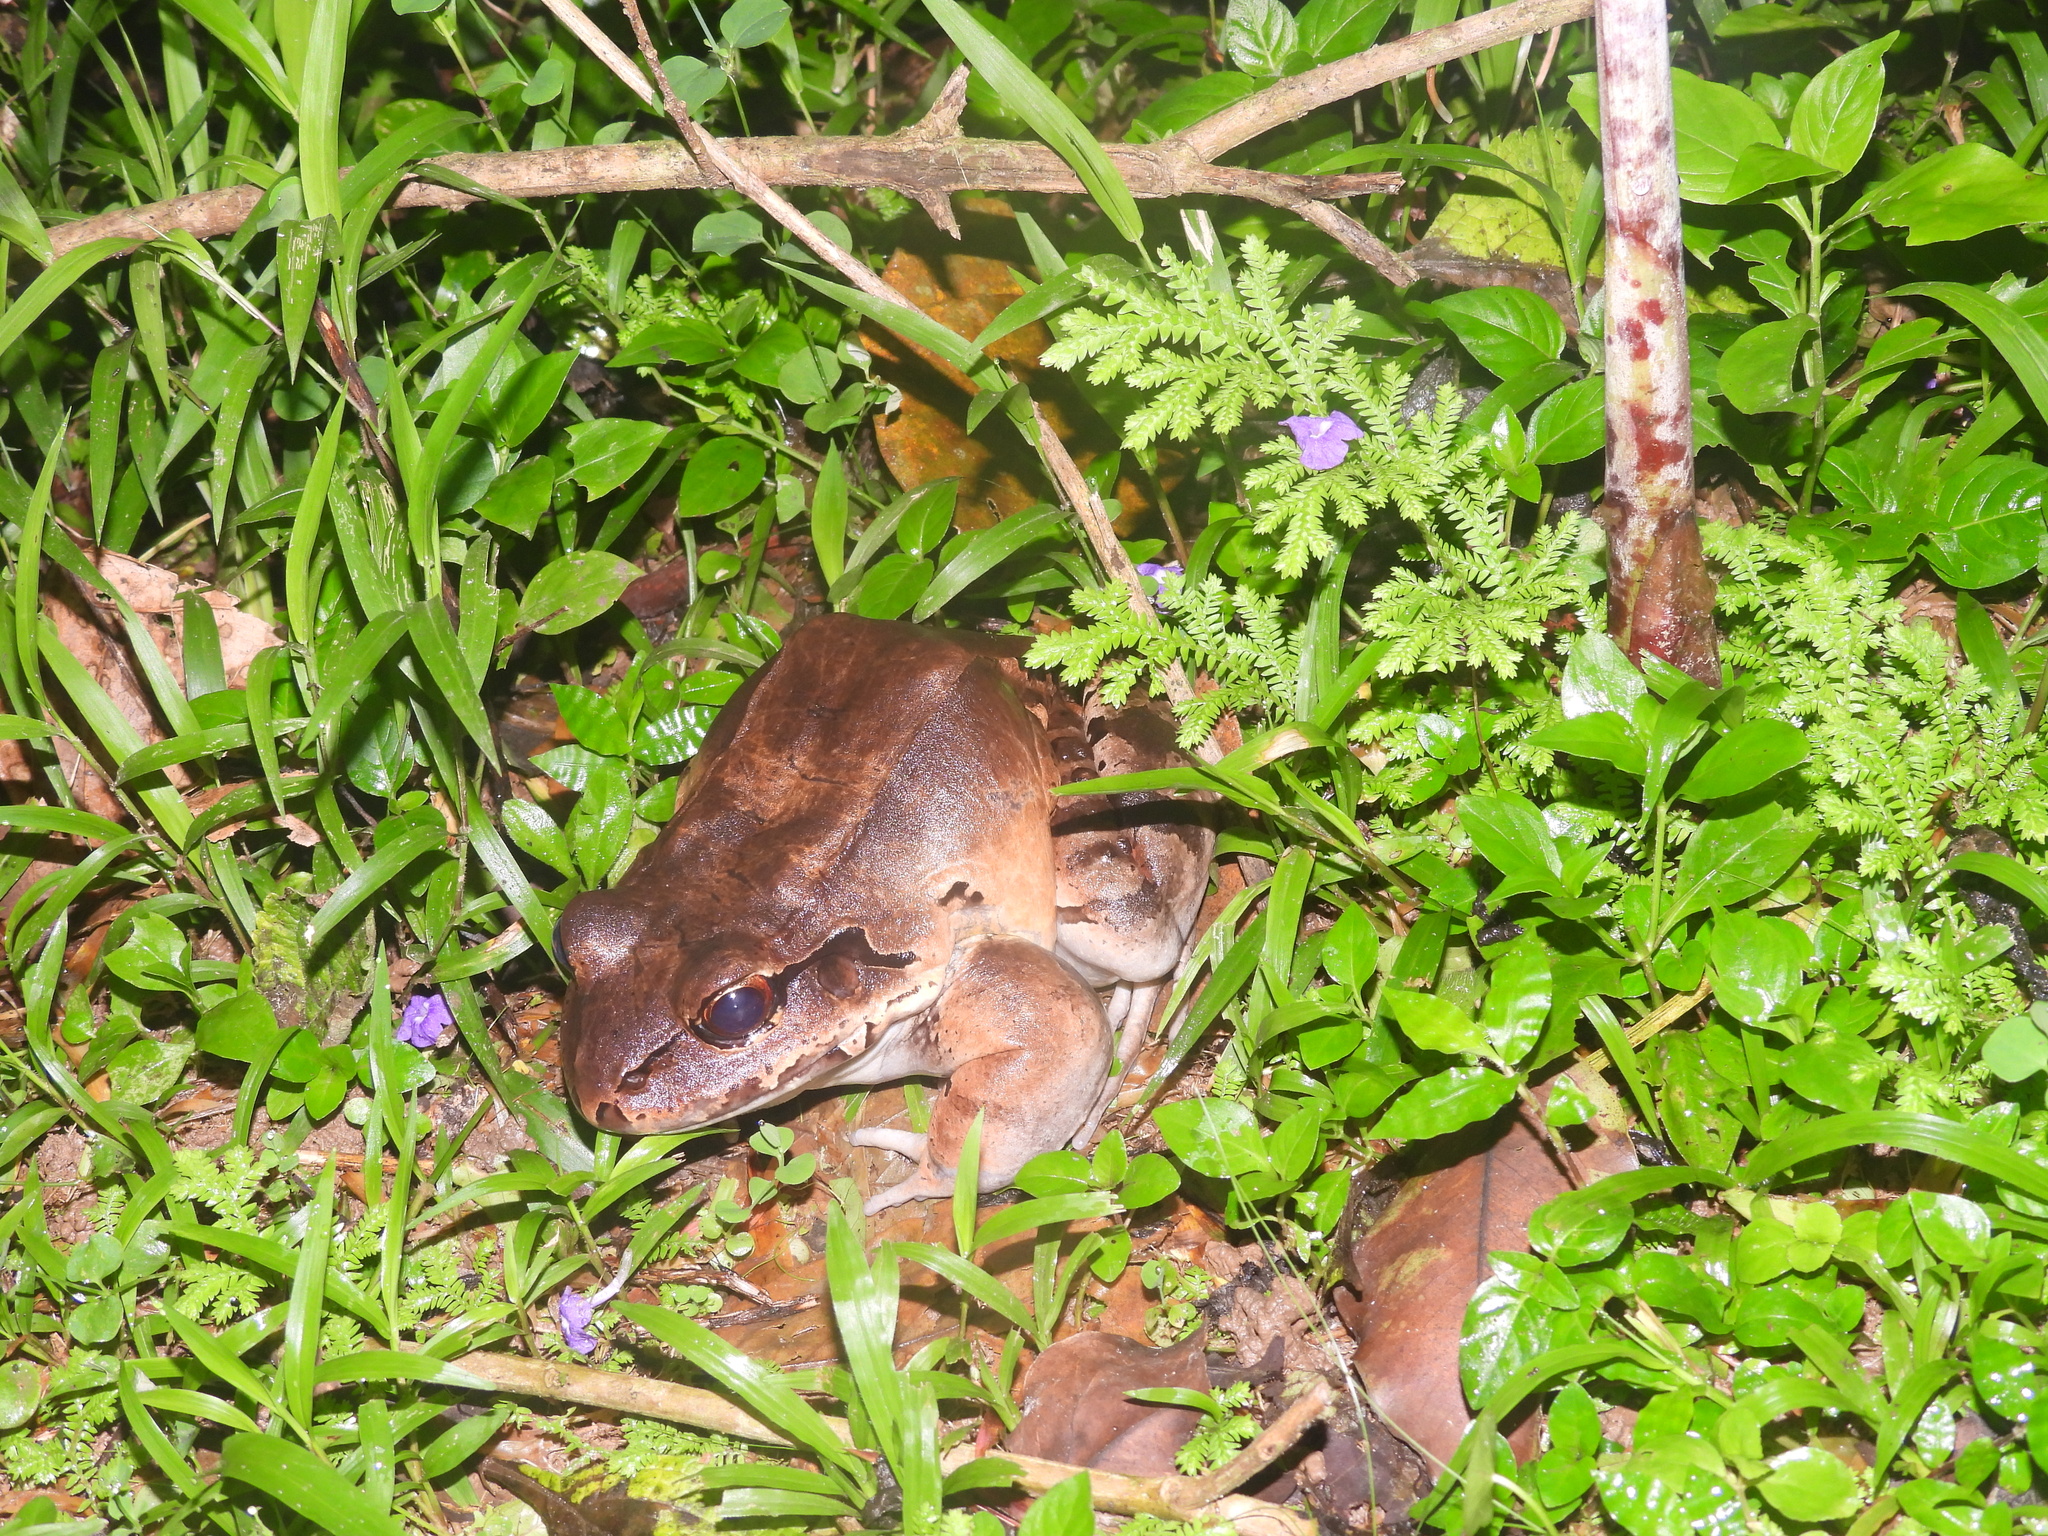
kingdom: Animalia
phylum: Chordata
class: Amphibia
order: Anura
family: Leptodactylidae
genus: Leptodactylus
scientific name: Leptodactylus savagei
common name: Savage's thin-toed frog
